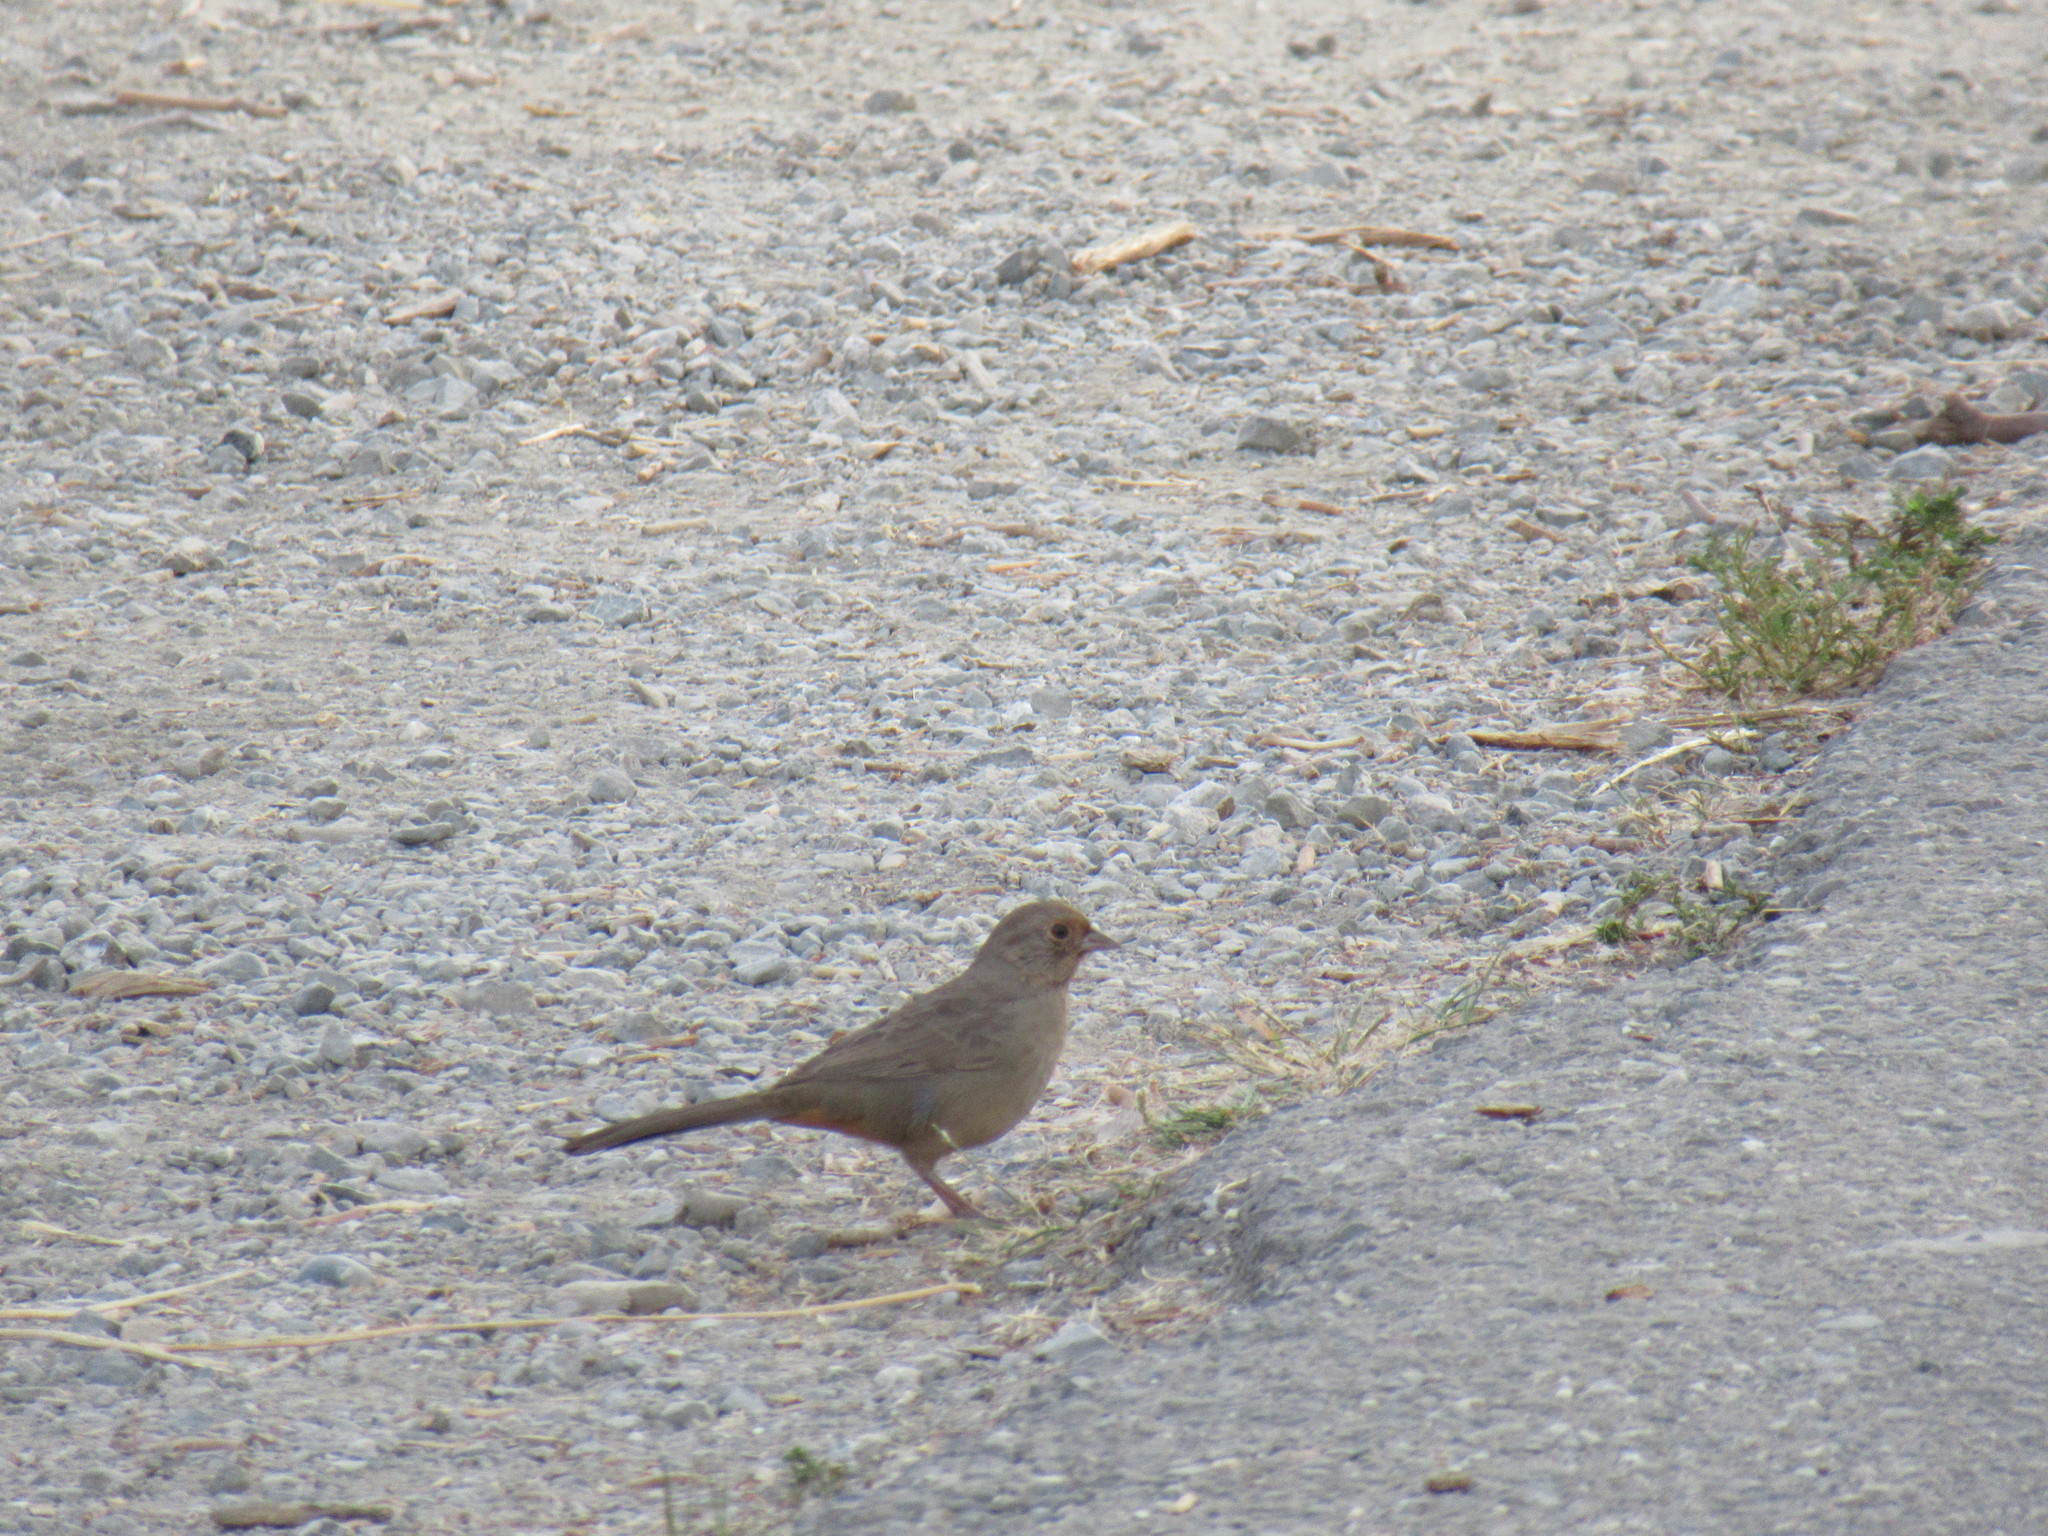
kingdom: Animalia
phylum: Chordata
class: Aves
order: Passeriformes
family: Passerellidae
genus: Melozone
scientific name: Melozone crissalis
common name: California towhee
